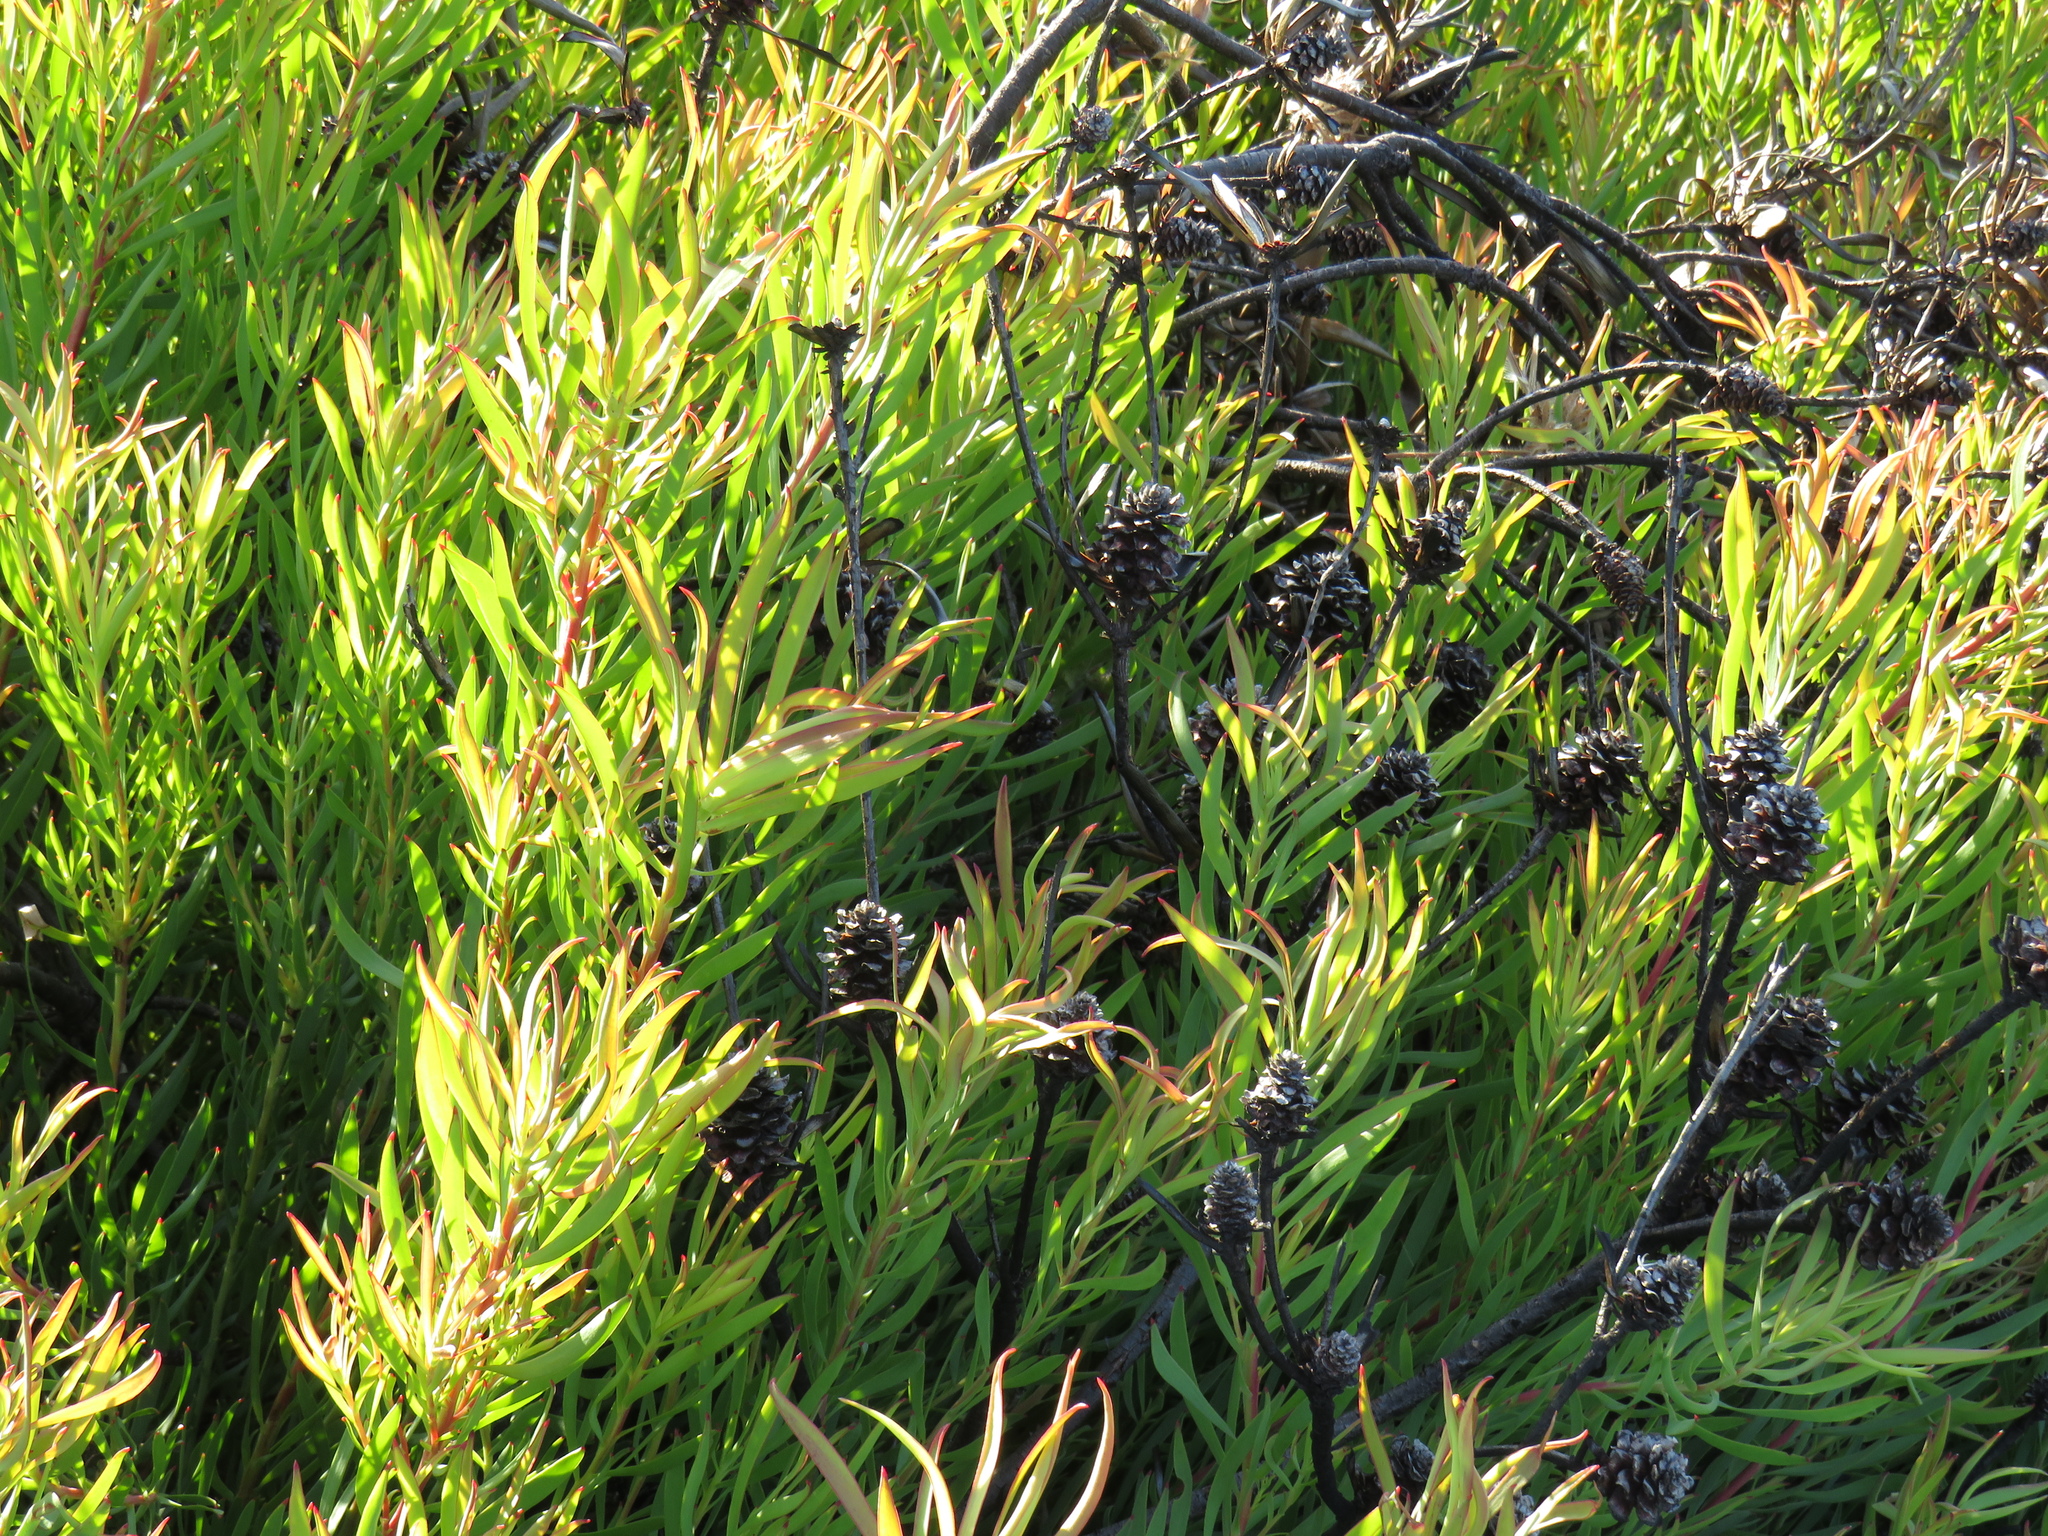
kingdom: Plantae
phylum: Tracheophyta
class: Magnoliopsida
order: Proteales
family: Proteaceae
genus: Leucadendron
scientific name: Leucadendron salignum
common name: Common sunshine conebush
